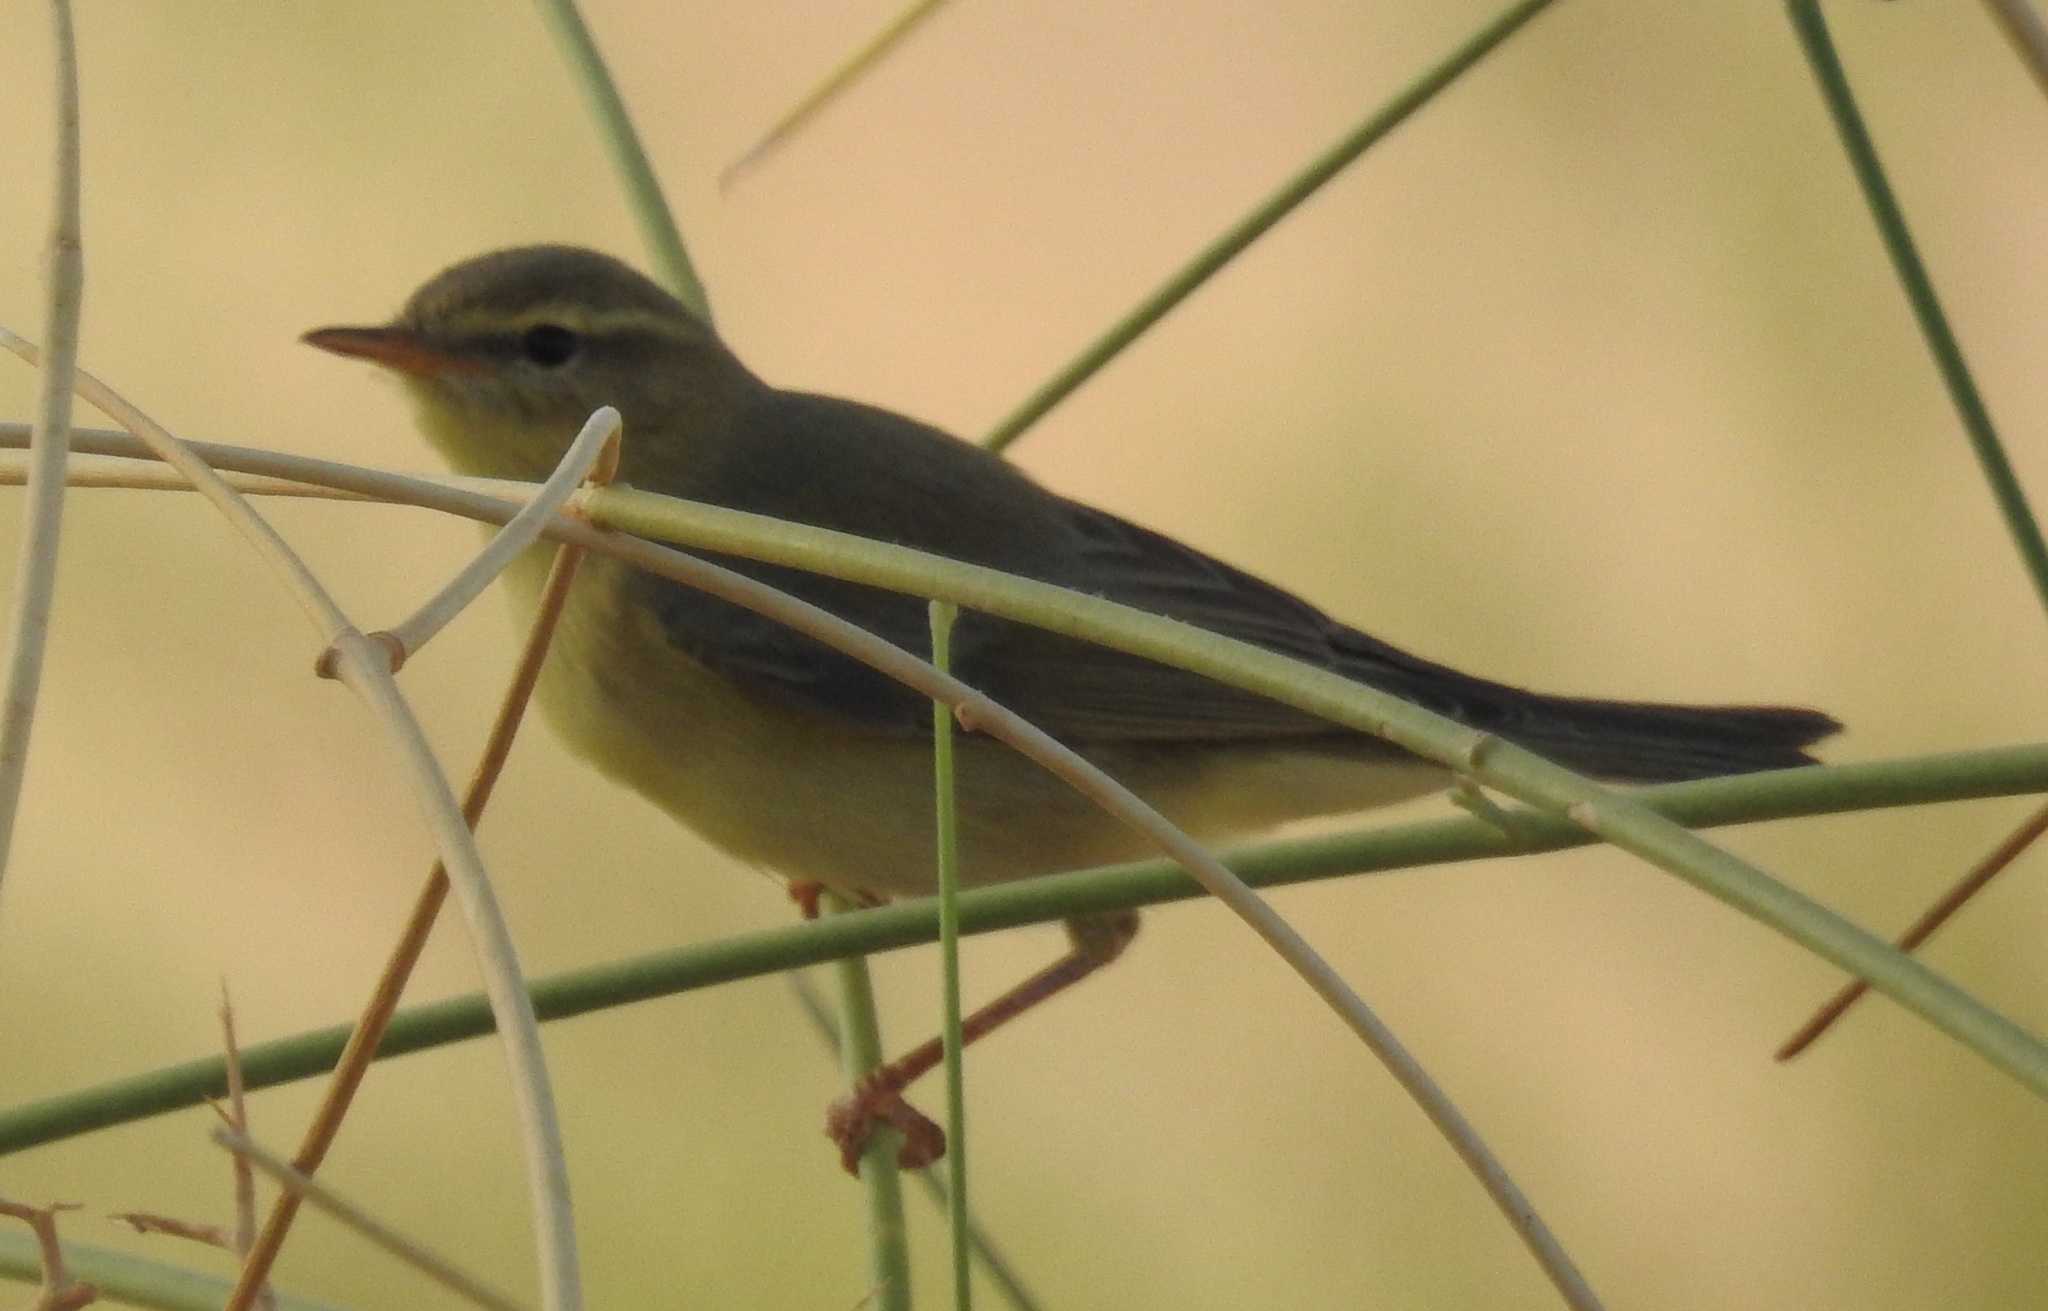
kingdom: Animalia
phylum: Chordata
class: Aves
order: Passeriformes
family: Phylloscopidae
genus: Phylloscopus
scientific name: Phylloscopus trochilus
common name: Willow warbler
